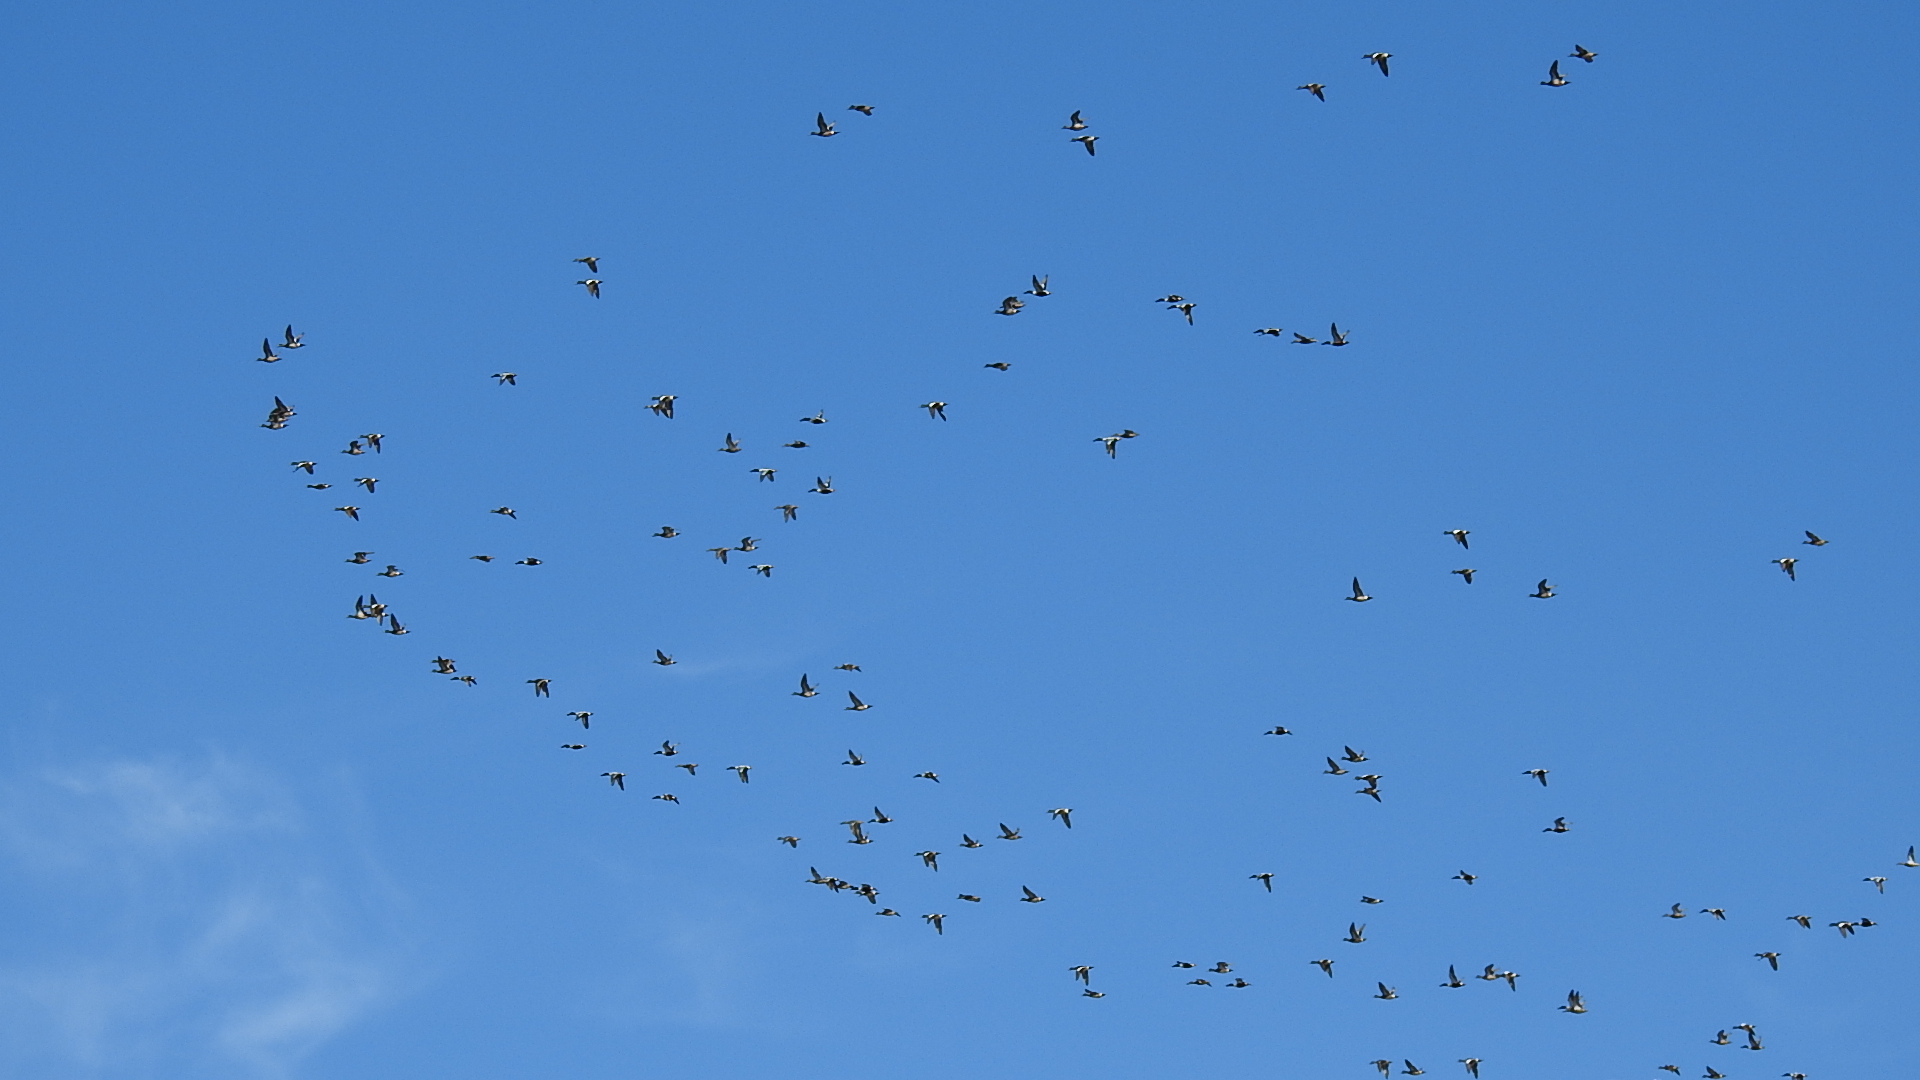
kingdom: Animalia
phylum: Chordata
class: Aves
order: Anseriformes
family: Anatidae
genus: Spatula
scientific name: Spatula clypeata
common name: Northern shoveler
